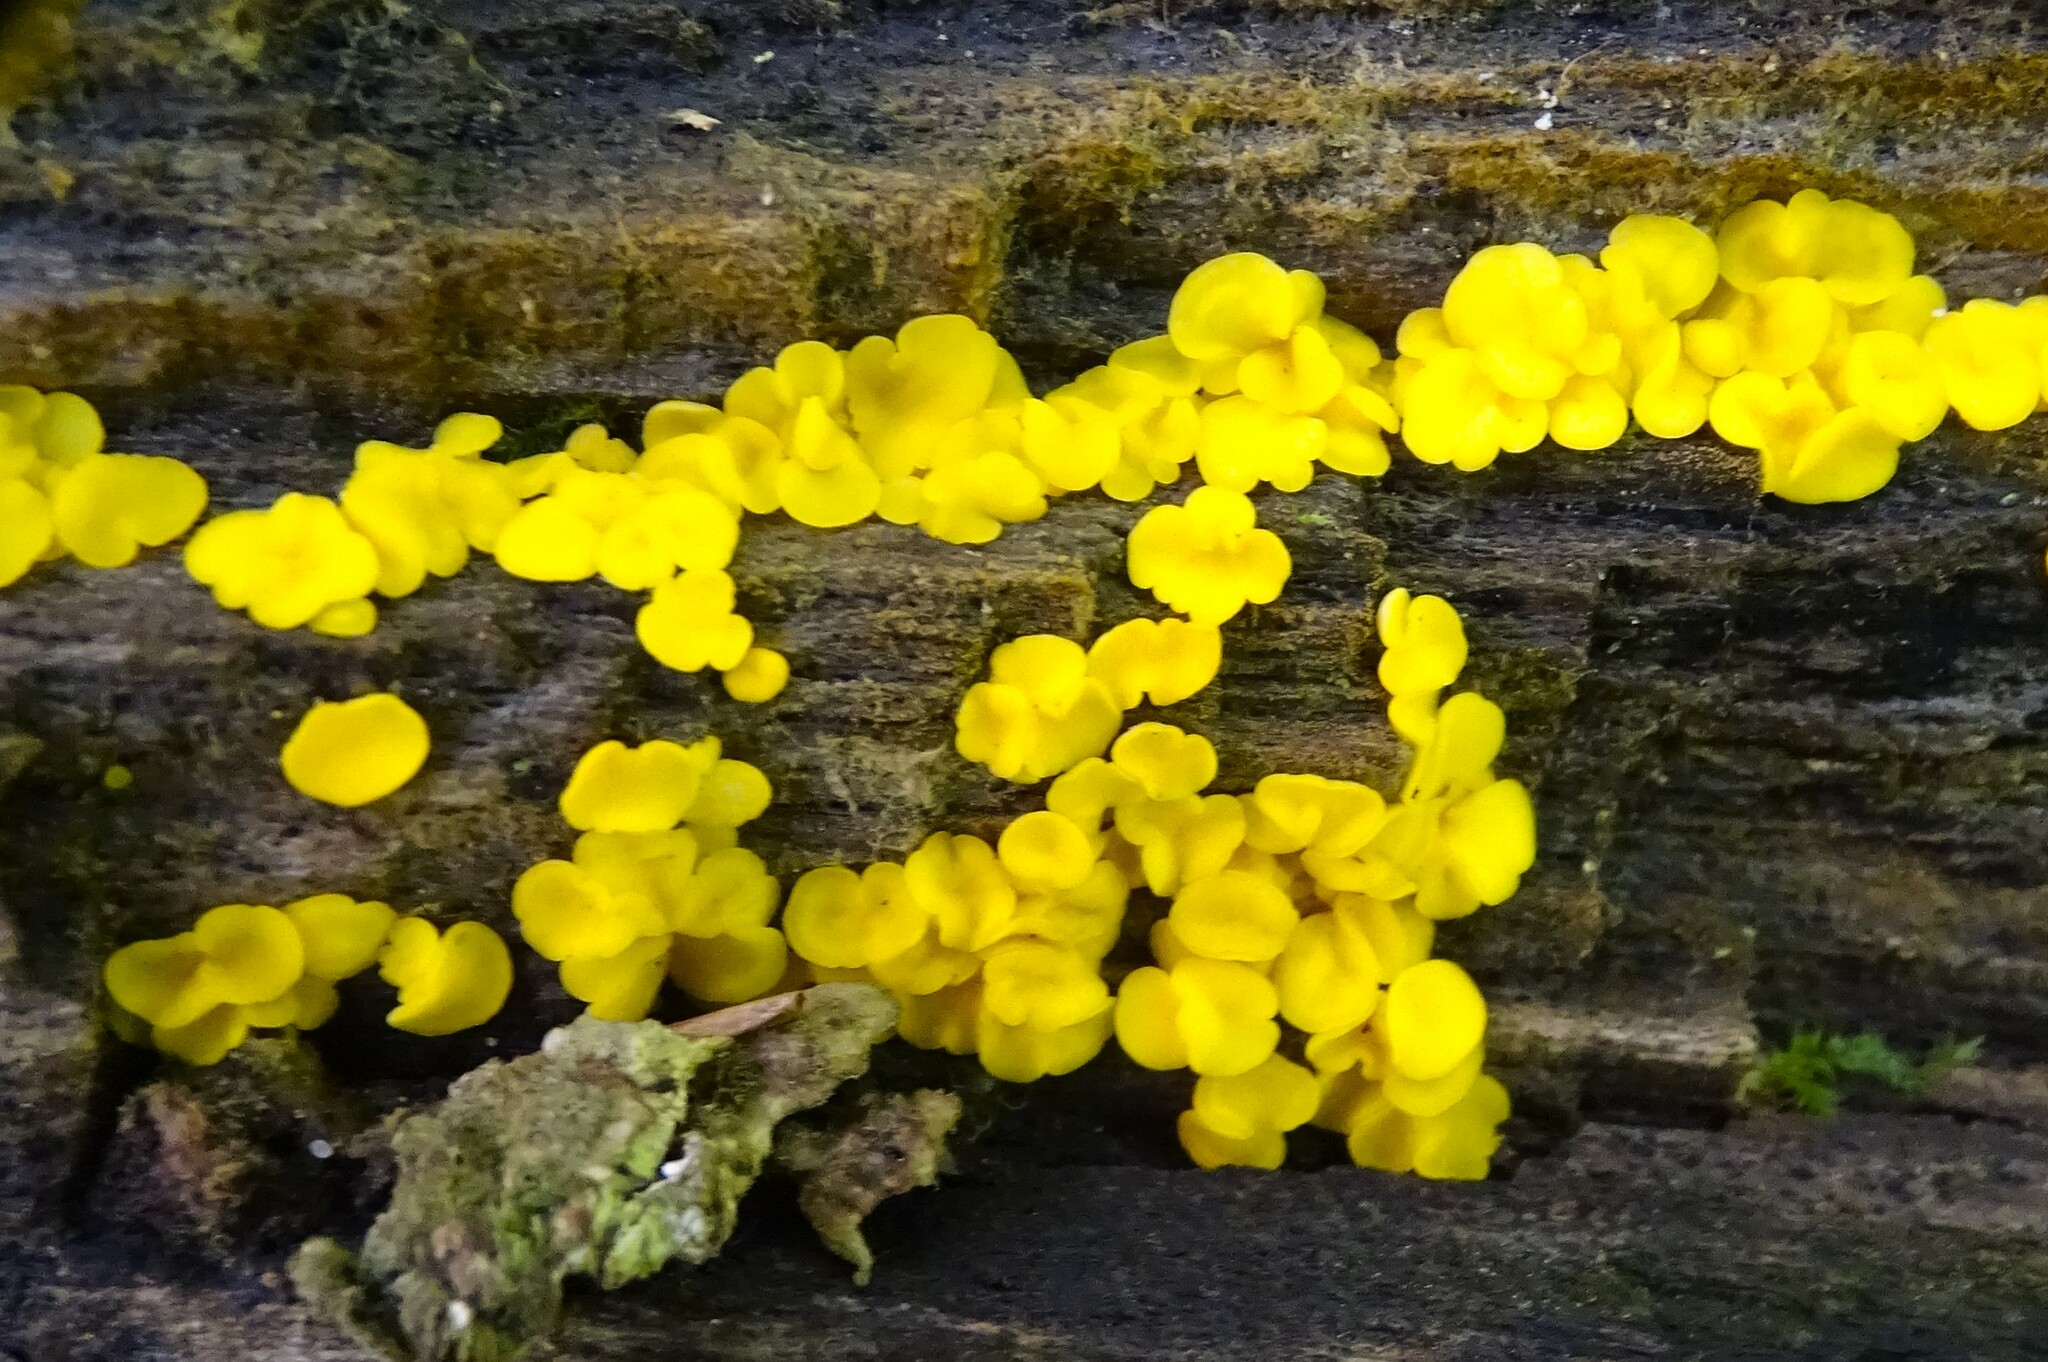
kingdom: Fungi
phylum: Ascomycota
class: Leotiomycetes
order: Helotiales
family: Pezizellaceae
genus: Calycina
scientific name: Calycina citrina
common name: Yellow fairy cups
